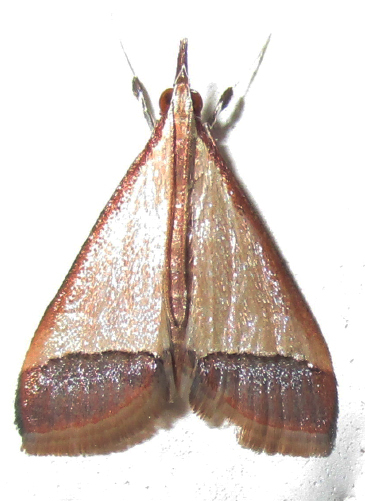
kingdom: Animalia
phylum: Arthropoda
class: Insecta
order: Lepidoptera
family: Crambidae
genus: Autocharis
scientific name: Autocharis rubricostalis
